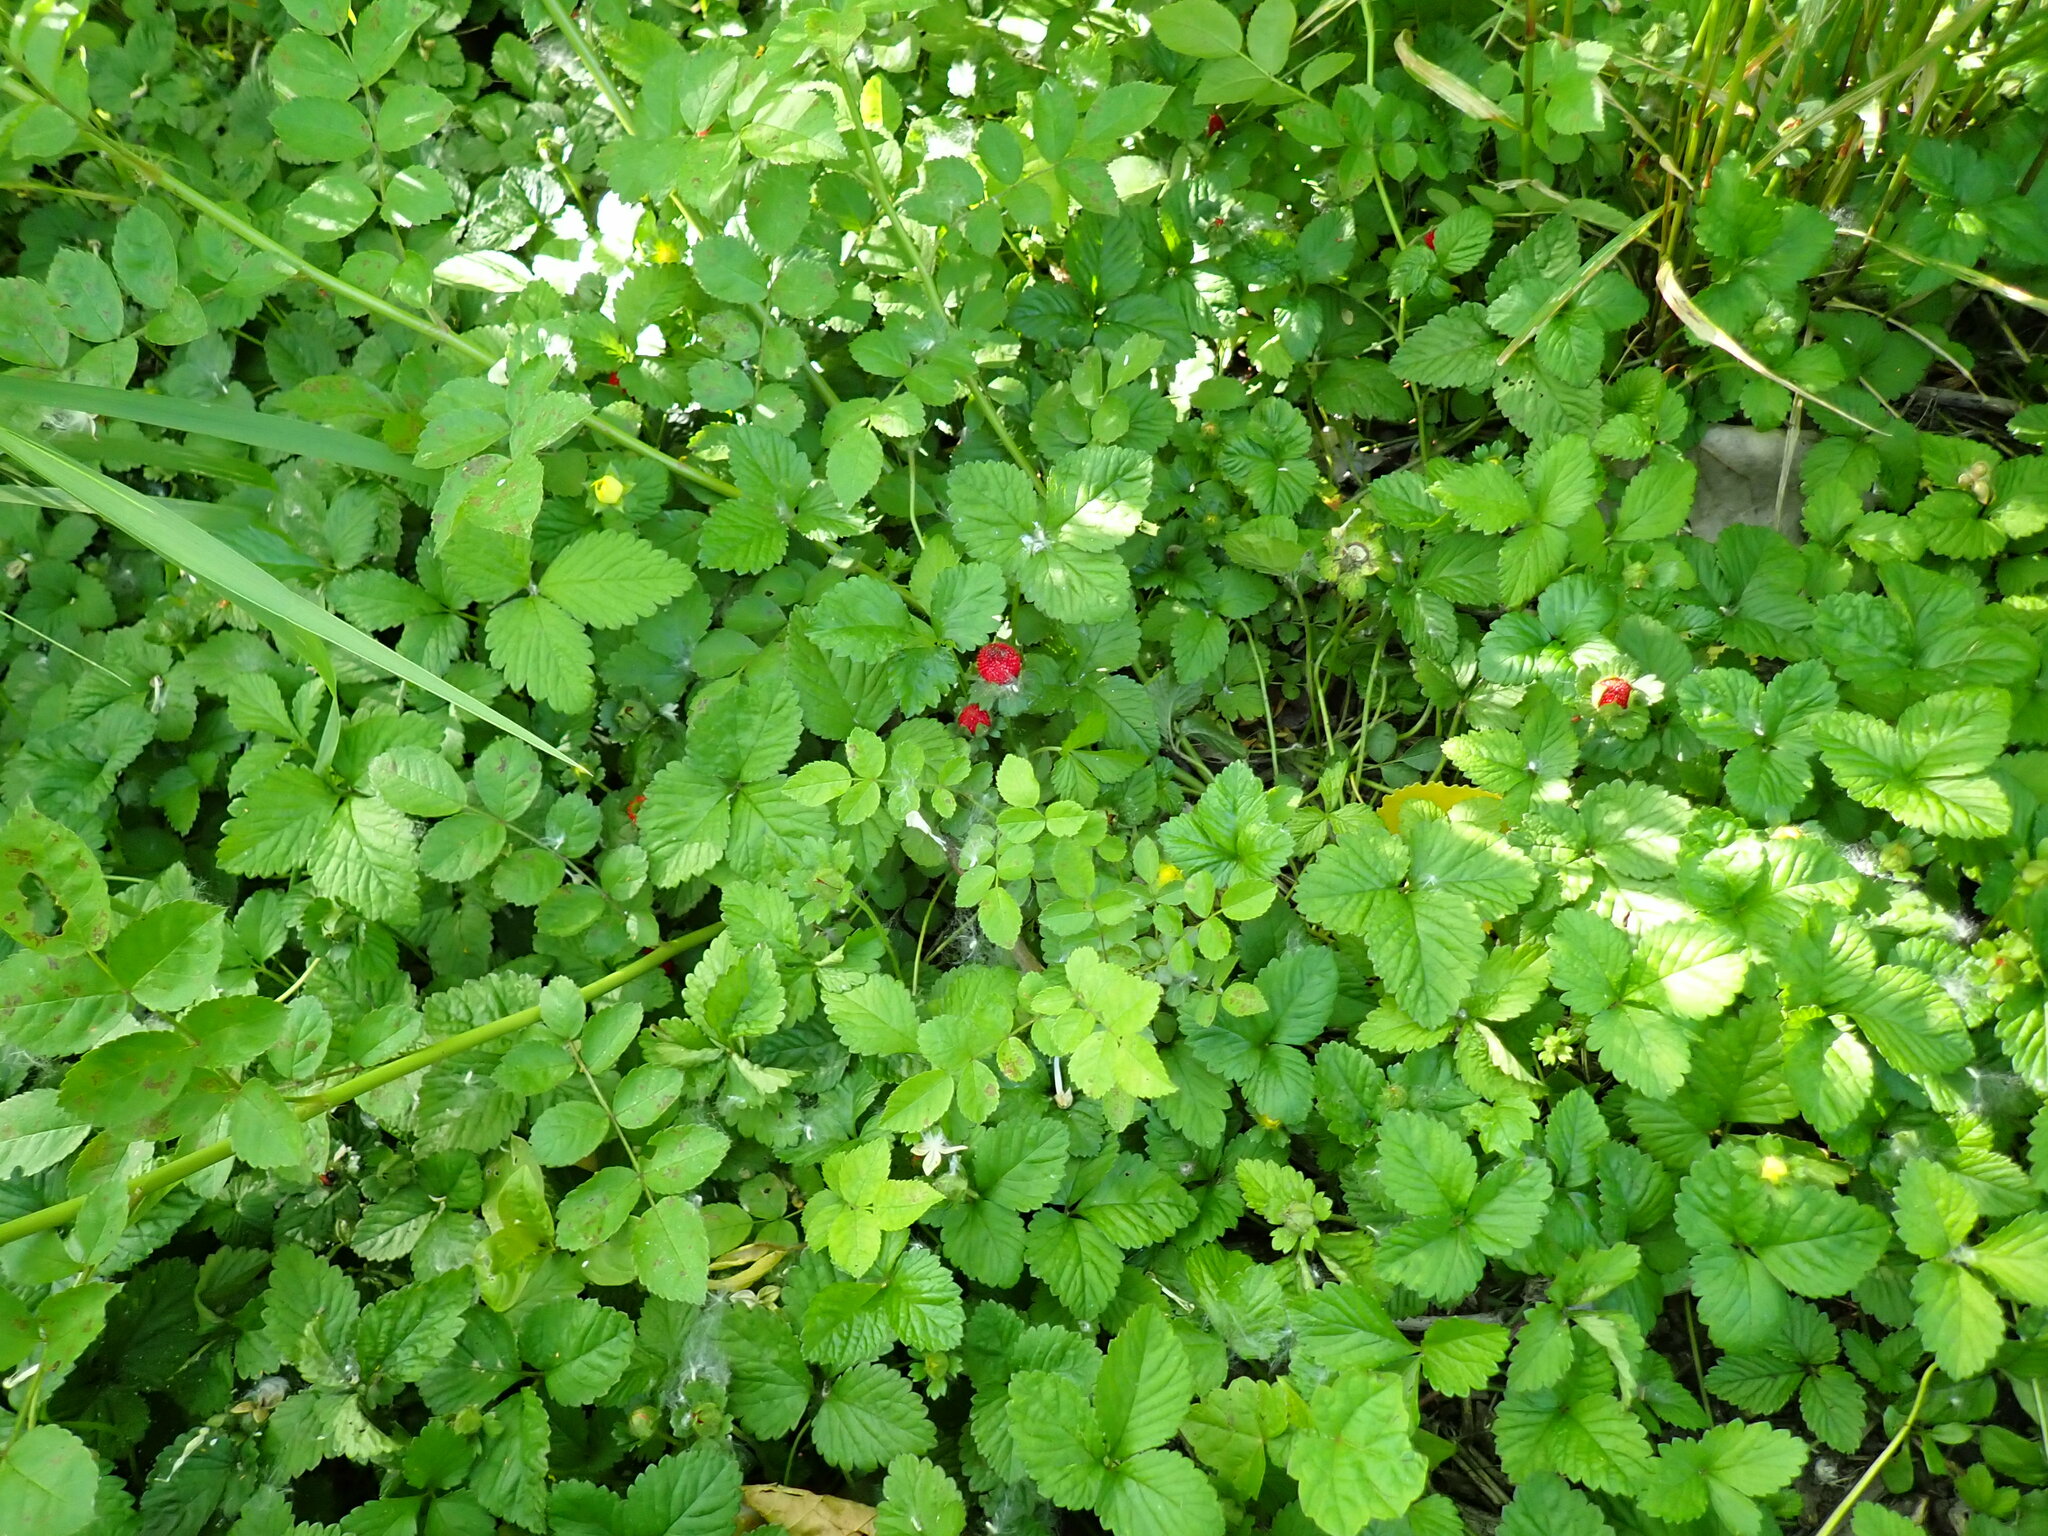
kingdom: Plantae
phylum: Tracheophyta
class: Magnoliopsida
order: Rosales
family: Rosaceae
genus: Potentilla
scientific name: Potentilla indica
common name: Yellow-flowered strawberry
